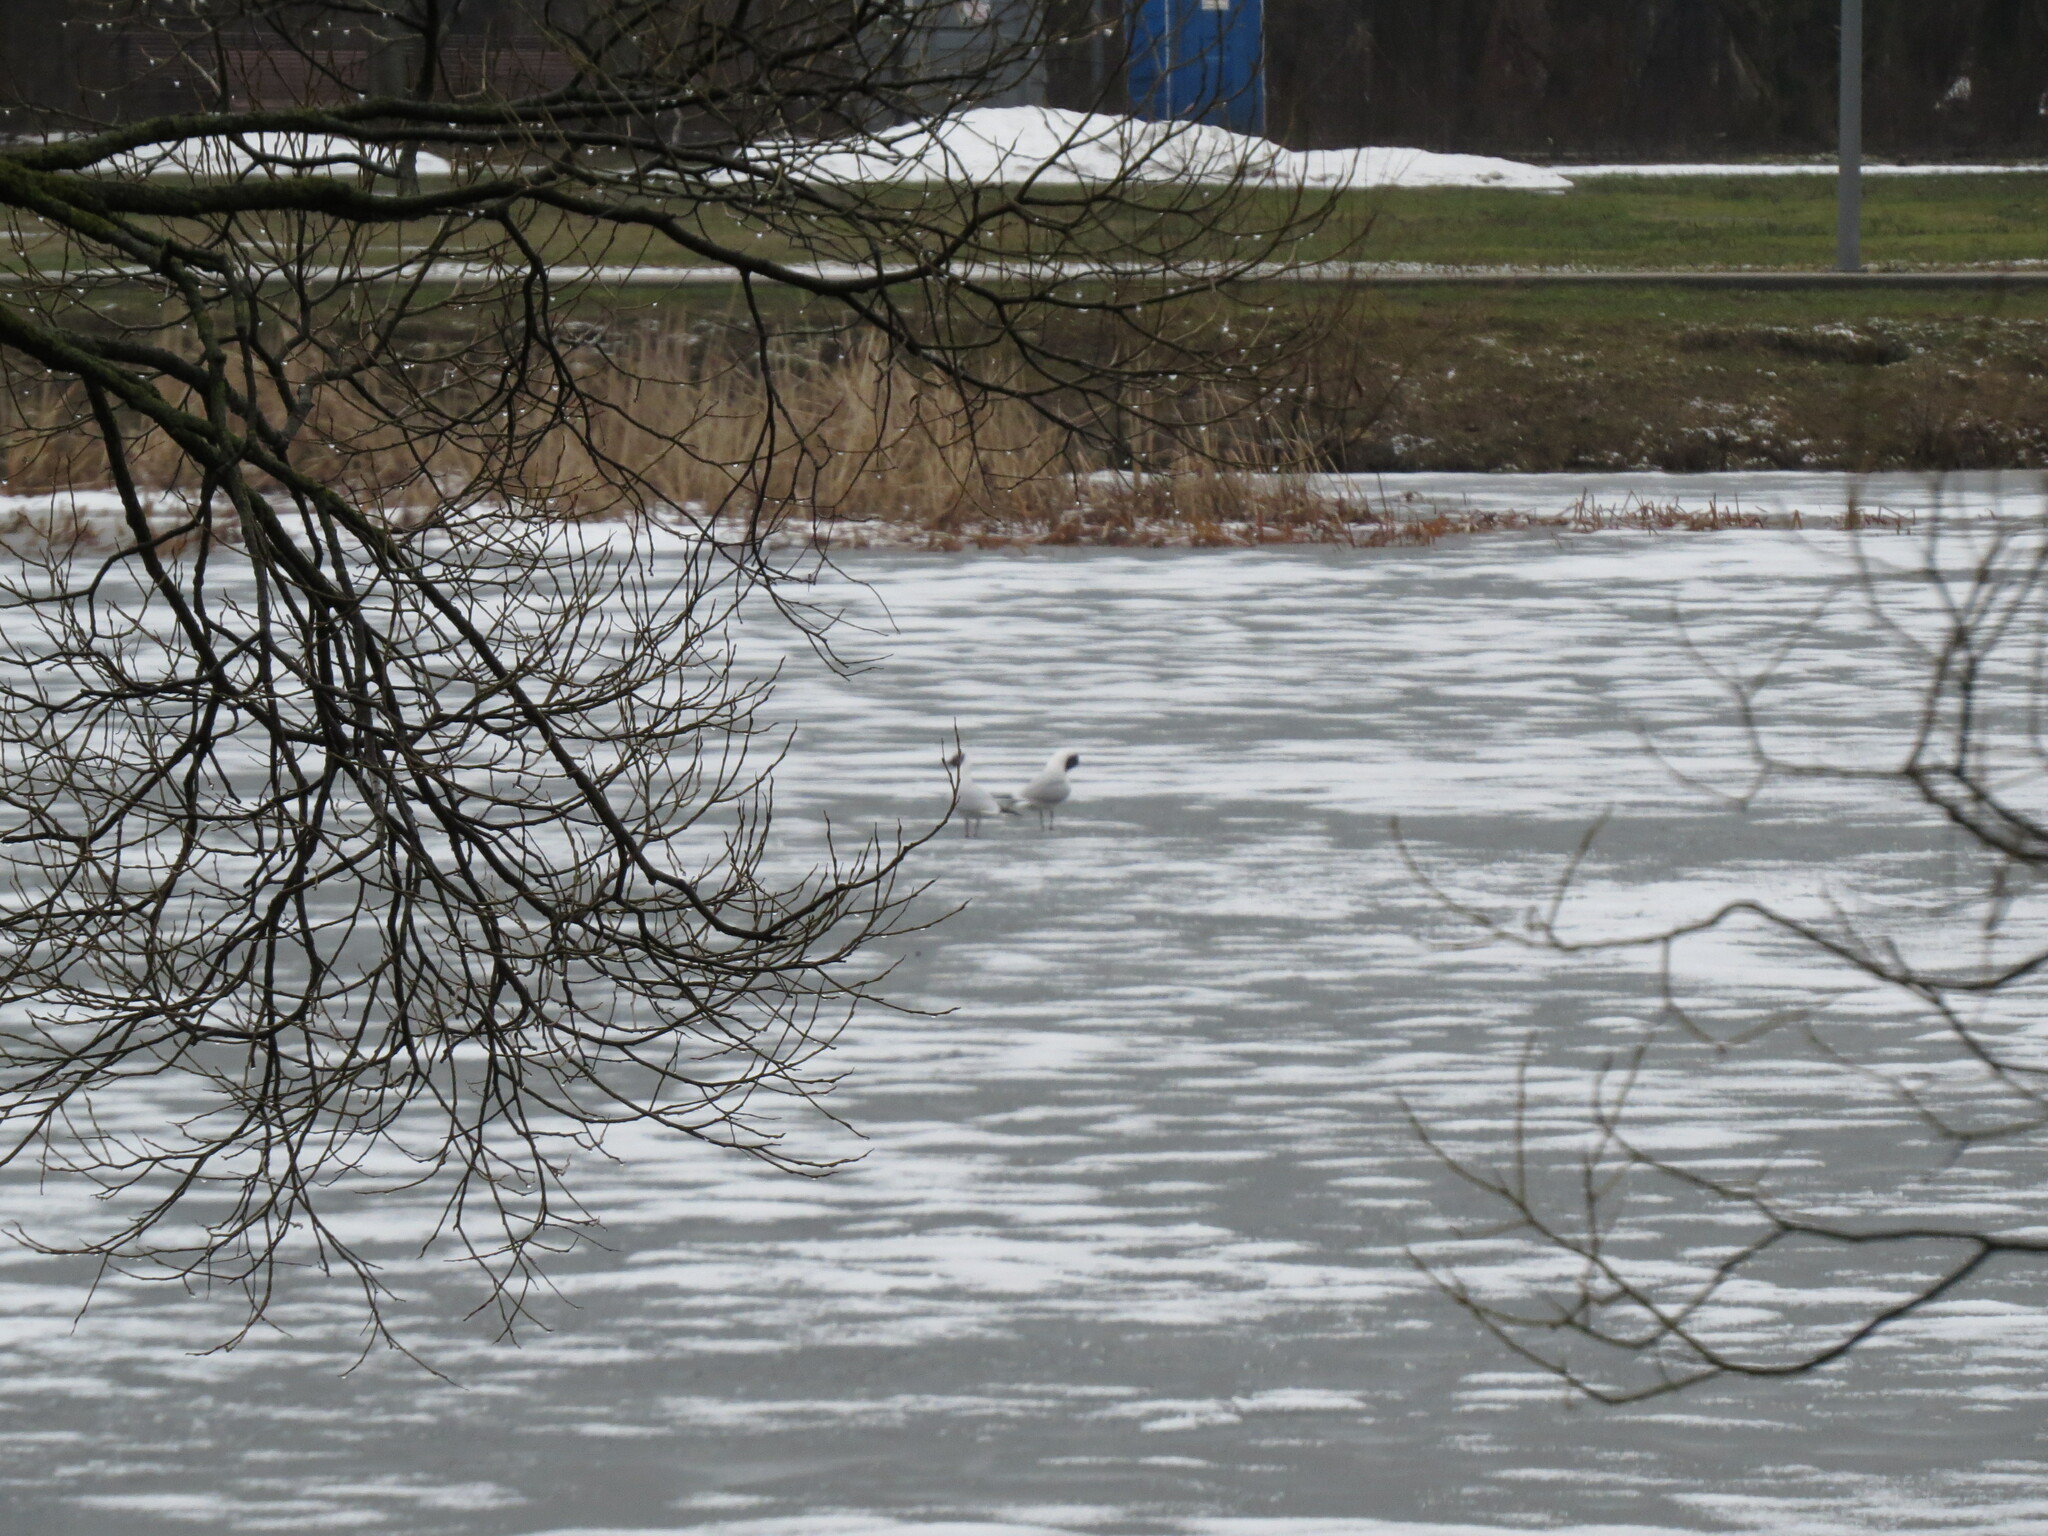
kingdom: Animalia
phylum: Chordata
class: Aves
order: Charadriiformes
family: Laridae
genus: Chroicocephalus
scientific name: Chroicocephalus ridibundus
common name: Black-headed gull
